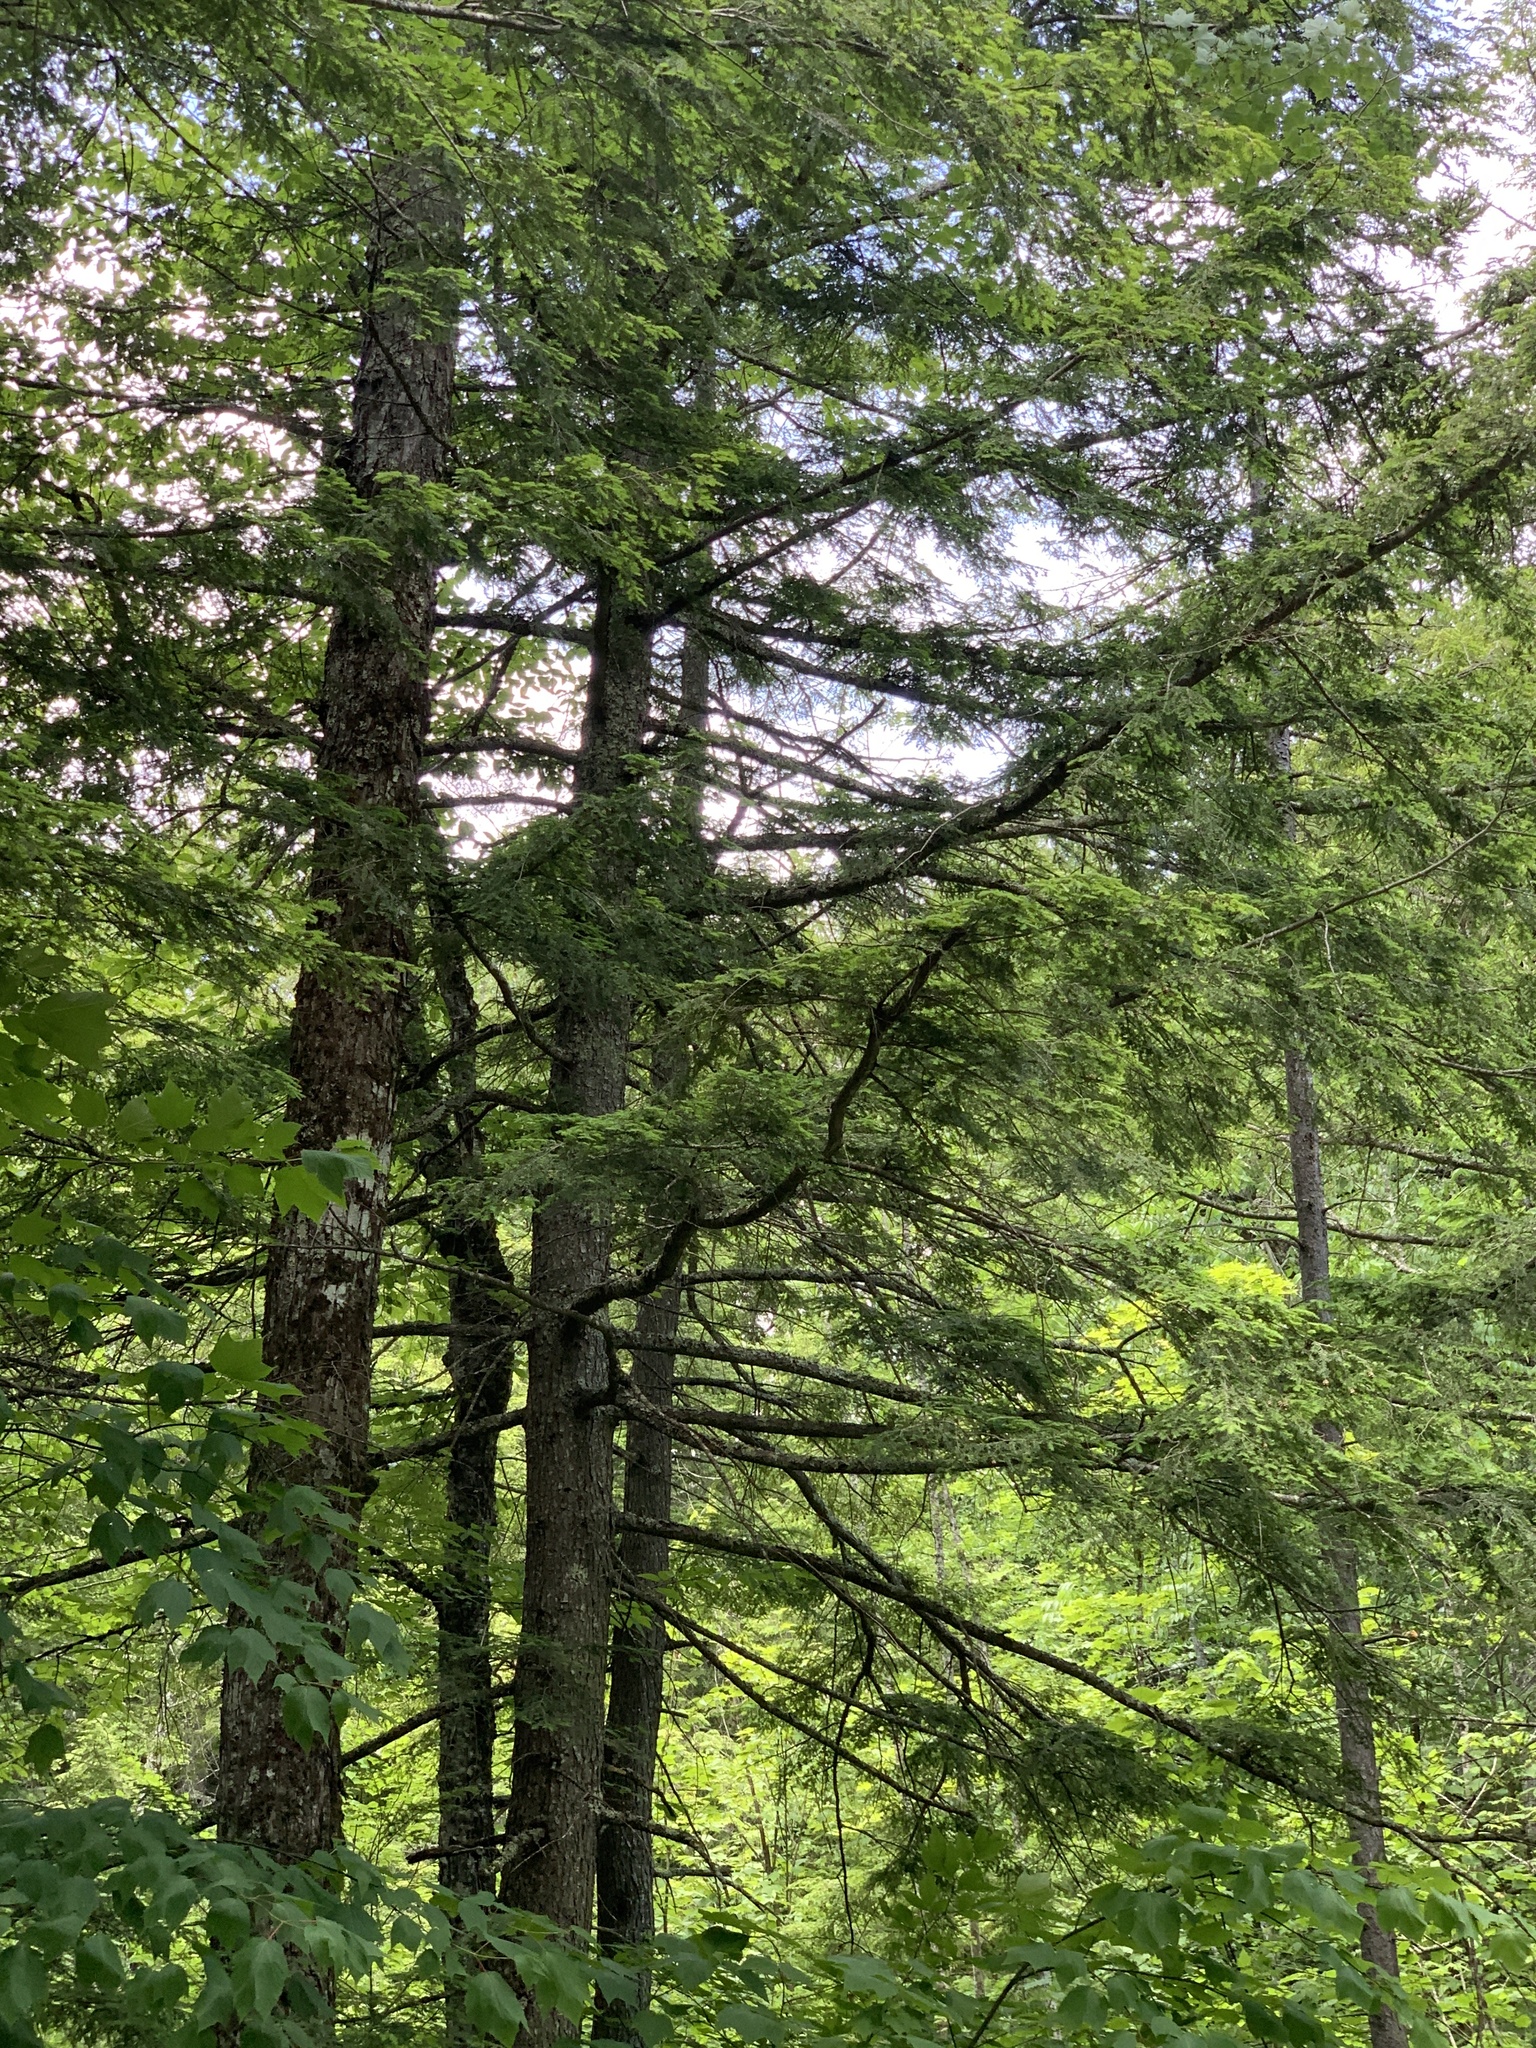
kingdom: Plantae
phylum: Tracheophyta
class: Pinopsida
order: Pinales
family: Pinaceae
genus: Tsuga
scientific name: Tsuga canadensis
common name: Eastern hemlock
